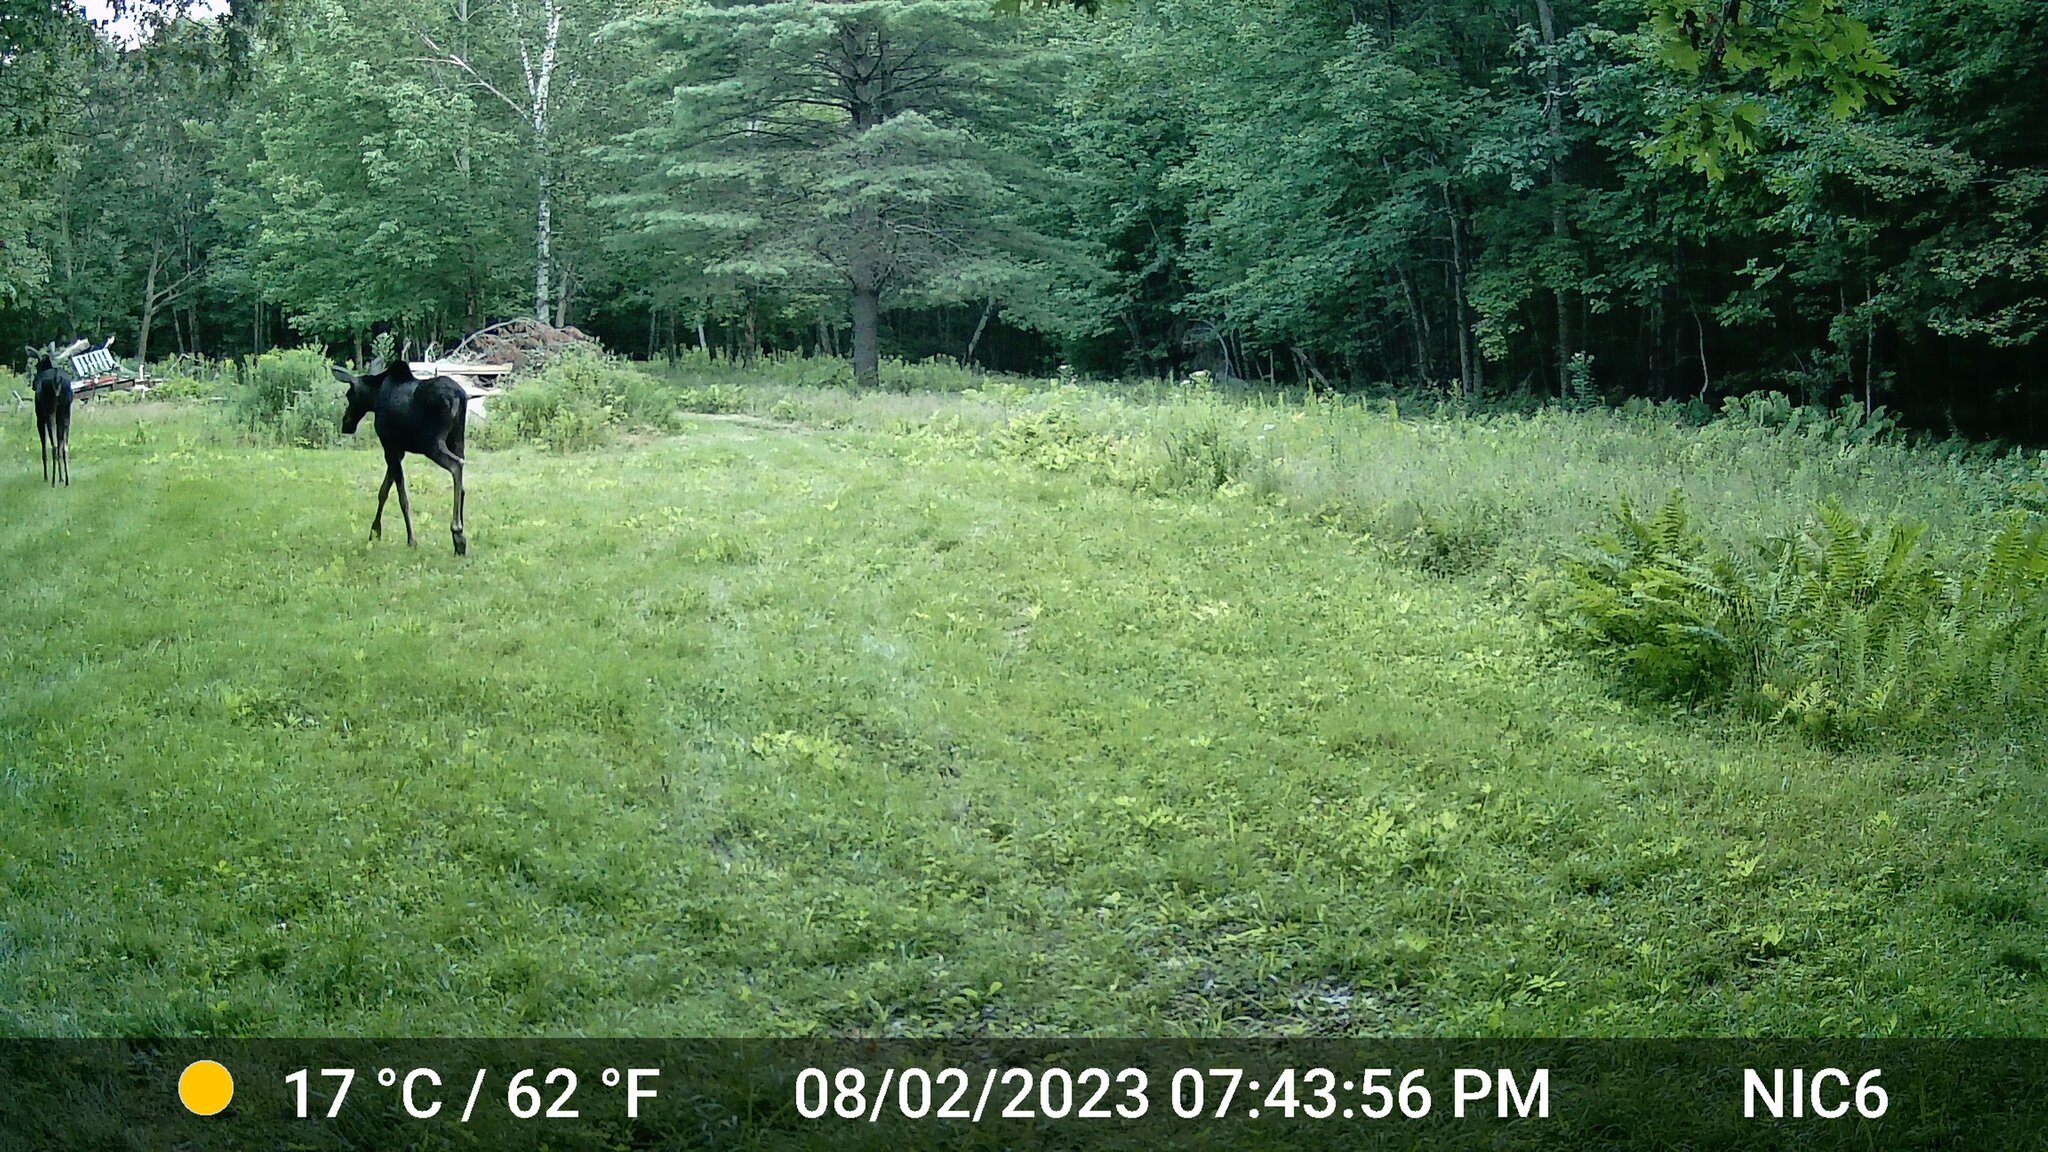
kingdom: Animalia
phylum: Chordata
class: Mammalia
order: Artiodactyla
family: Cervidae
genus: Alces
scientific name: Alces alces
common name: Moose
